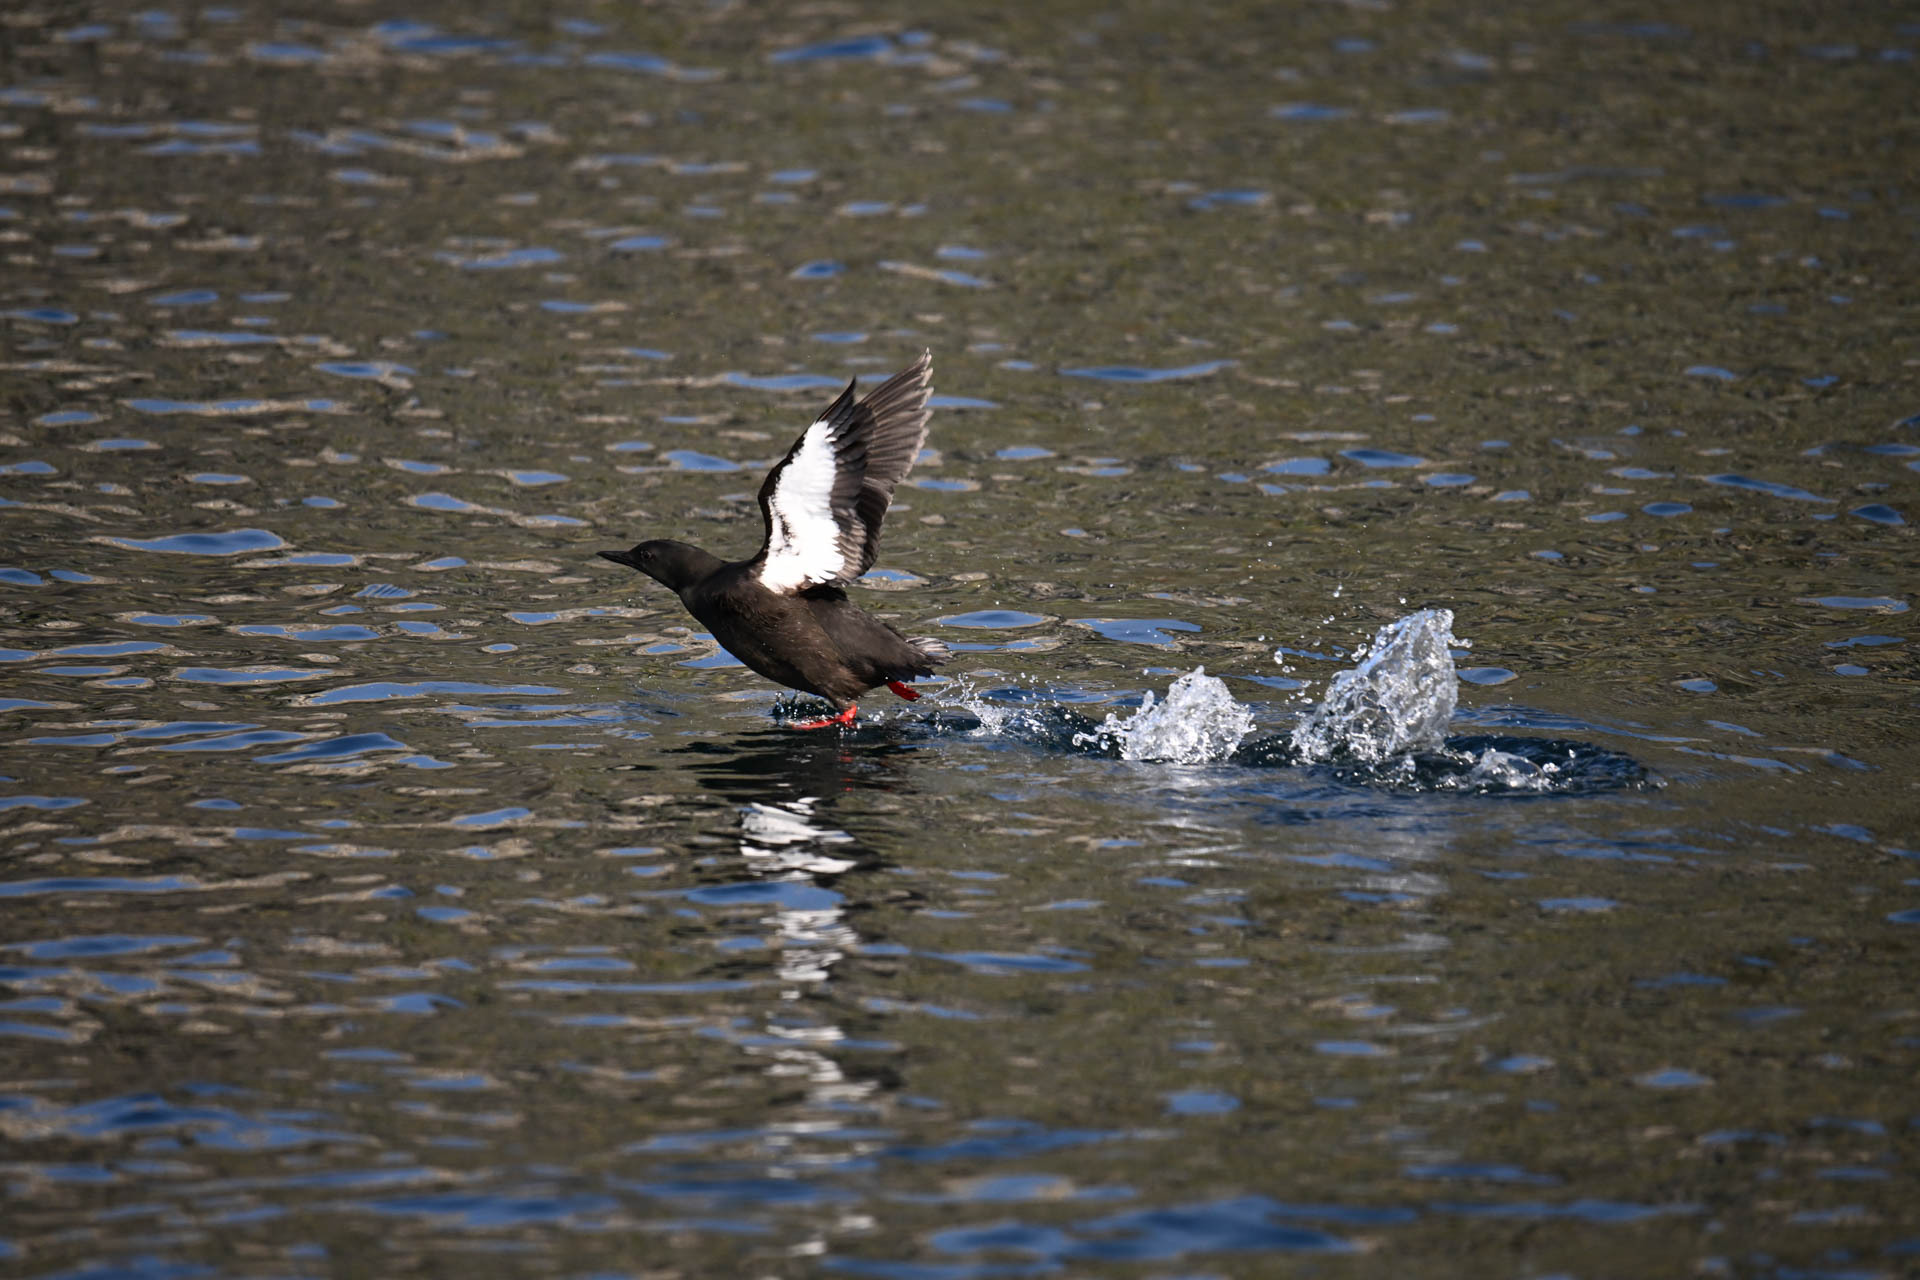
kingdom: Animalia
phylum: Chordata
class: Aves
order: Charadriiformes
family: Alcidae
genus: Cepphus
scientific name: Cepphus grylle
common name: Black guillemot
